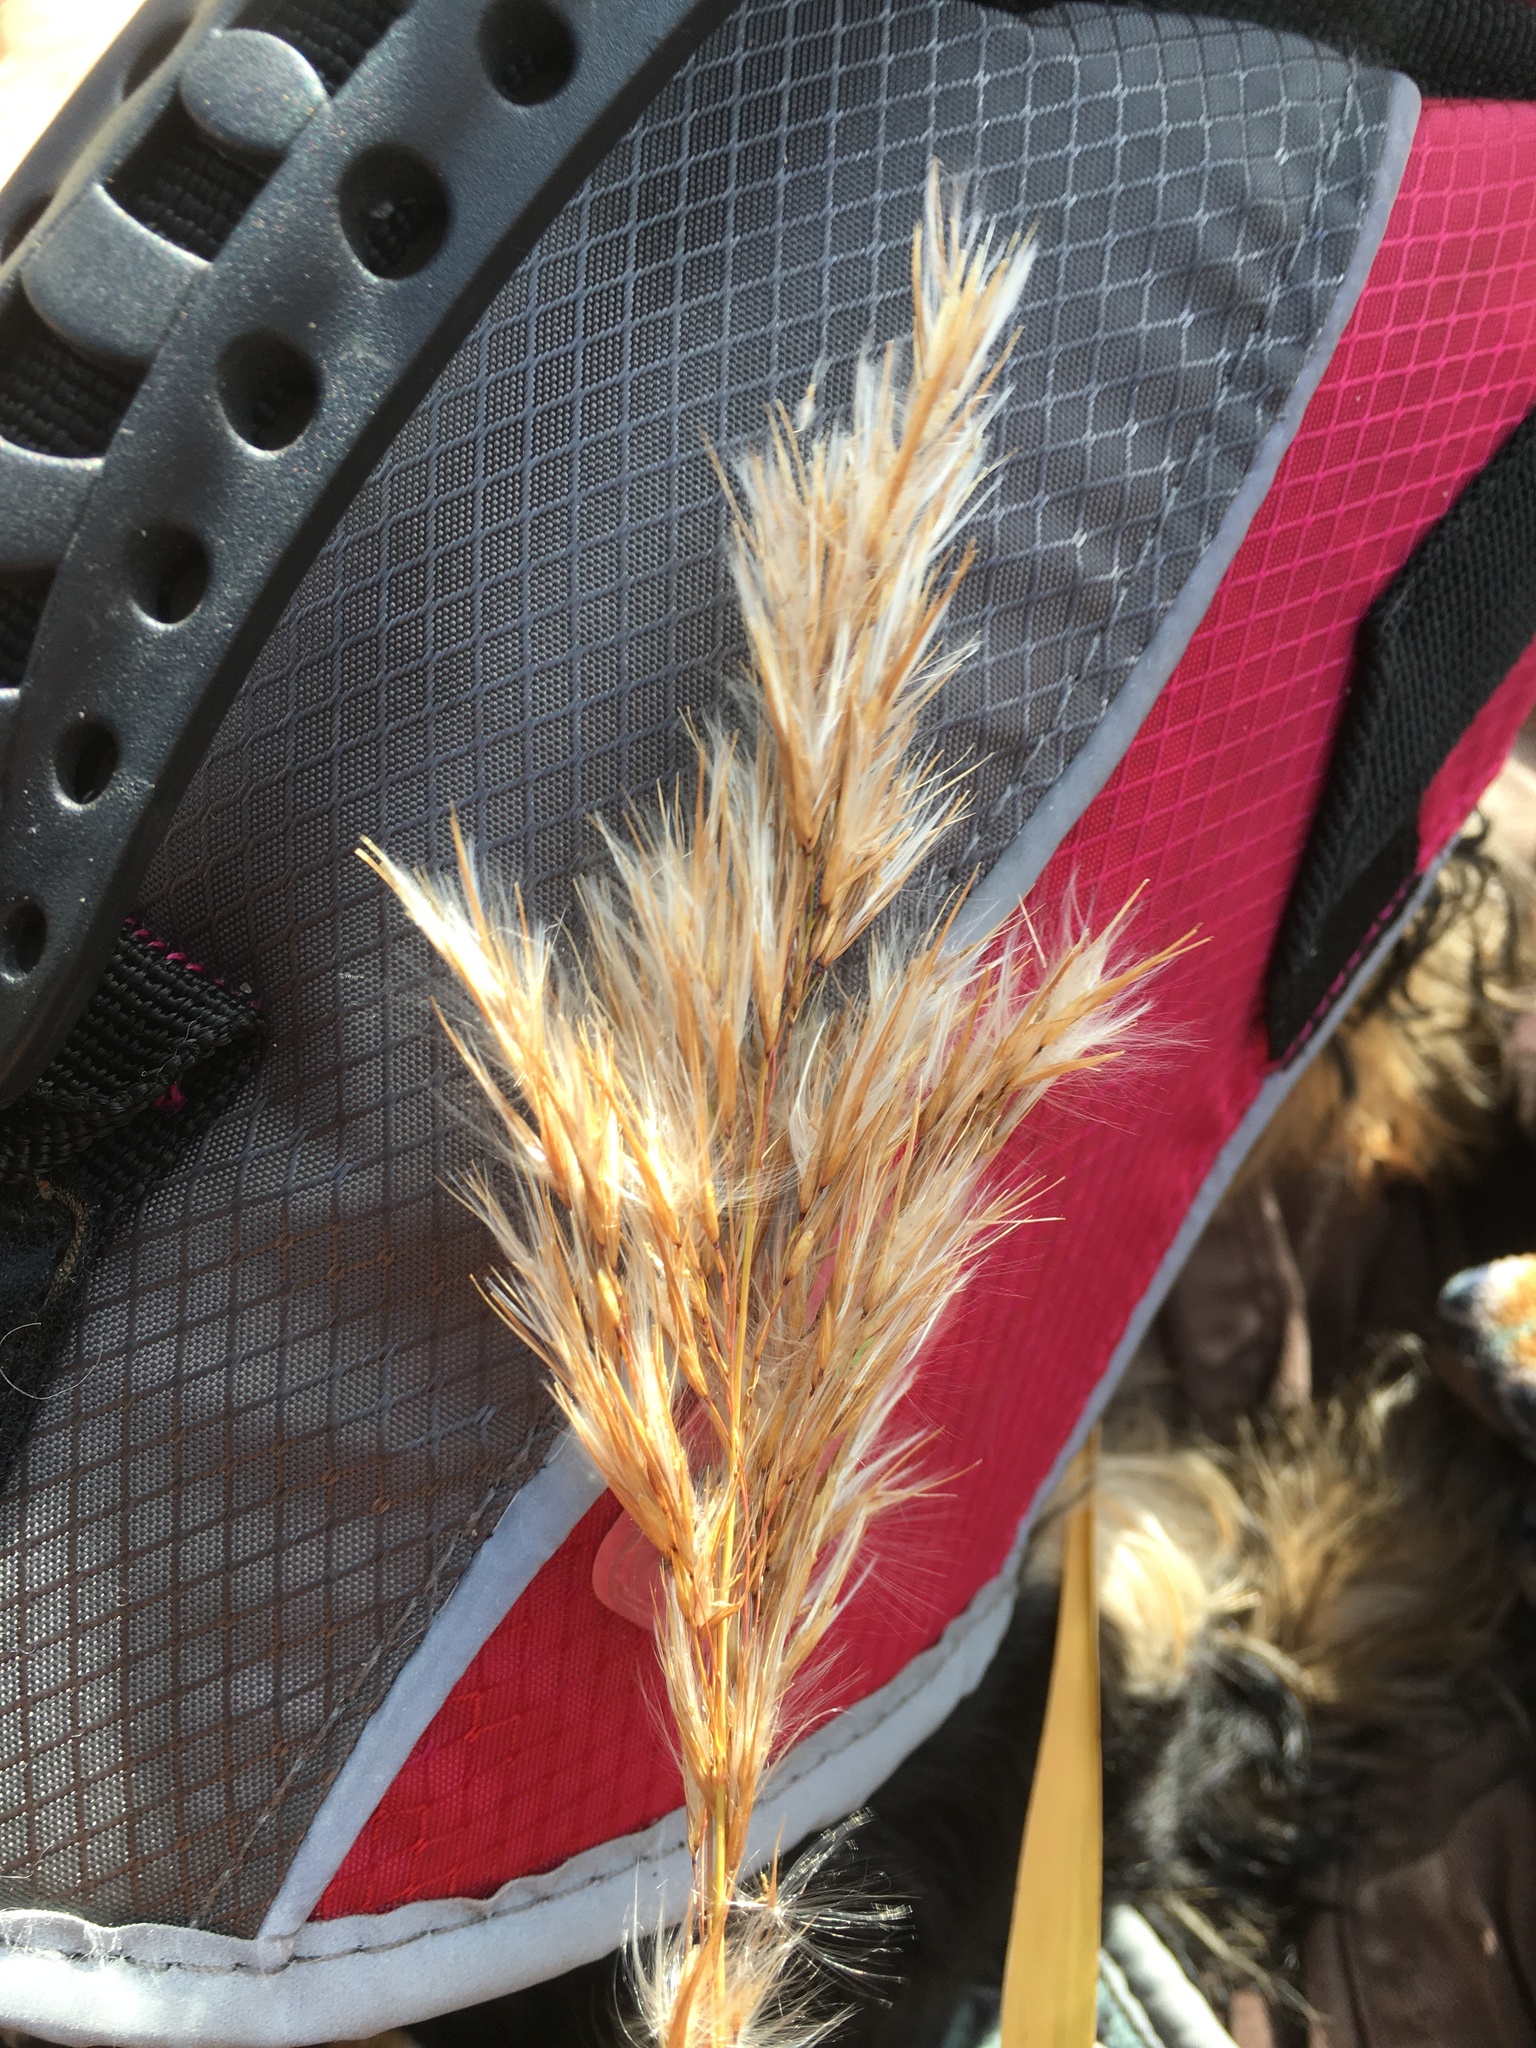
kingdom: Plantae
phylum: Tracheophyta
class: Liliopsida
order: Poales
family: Poaceae
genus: Phragmites
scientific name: Phragmites australis
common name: Common reed
